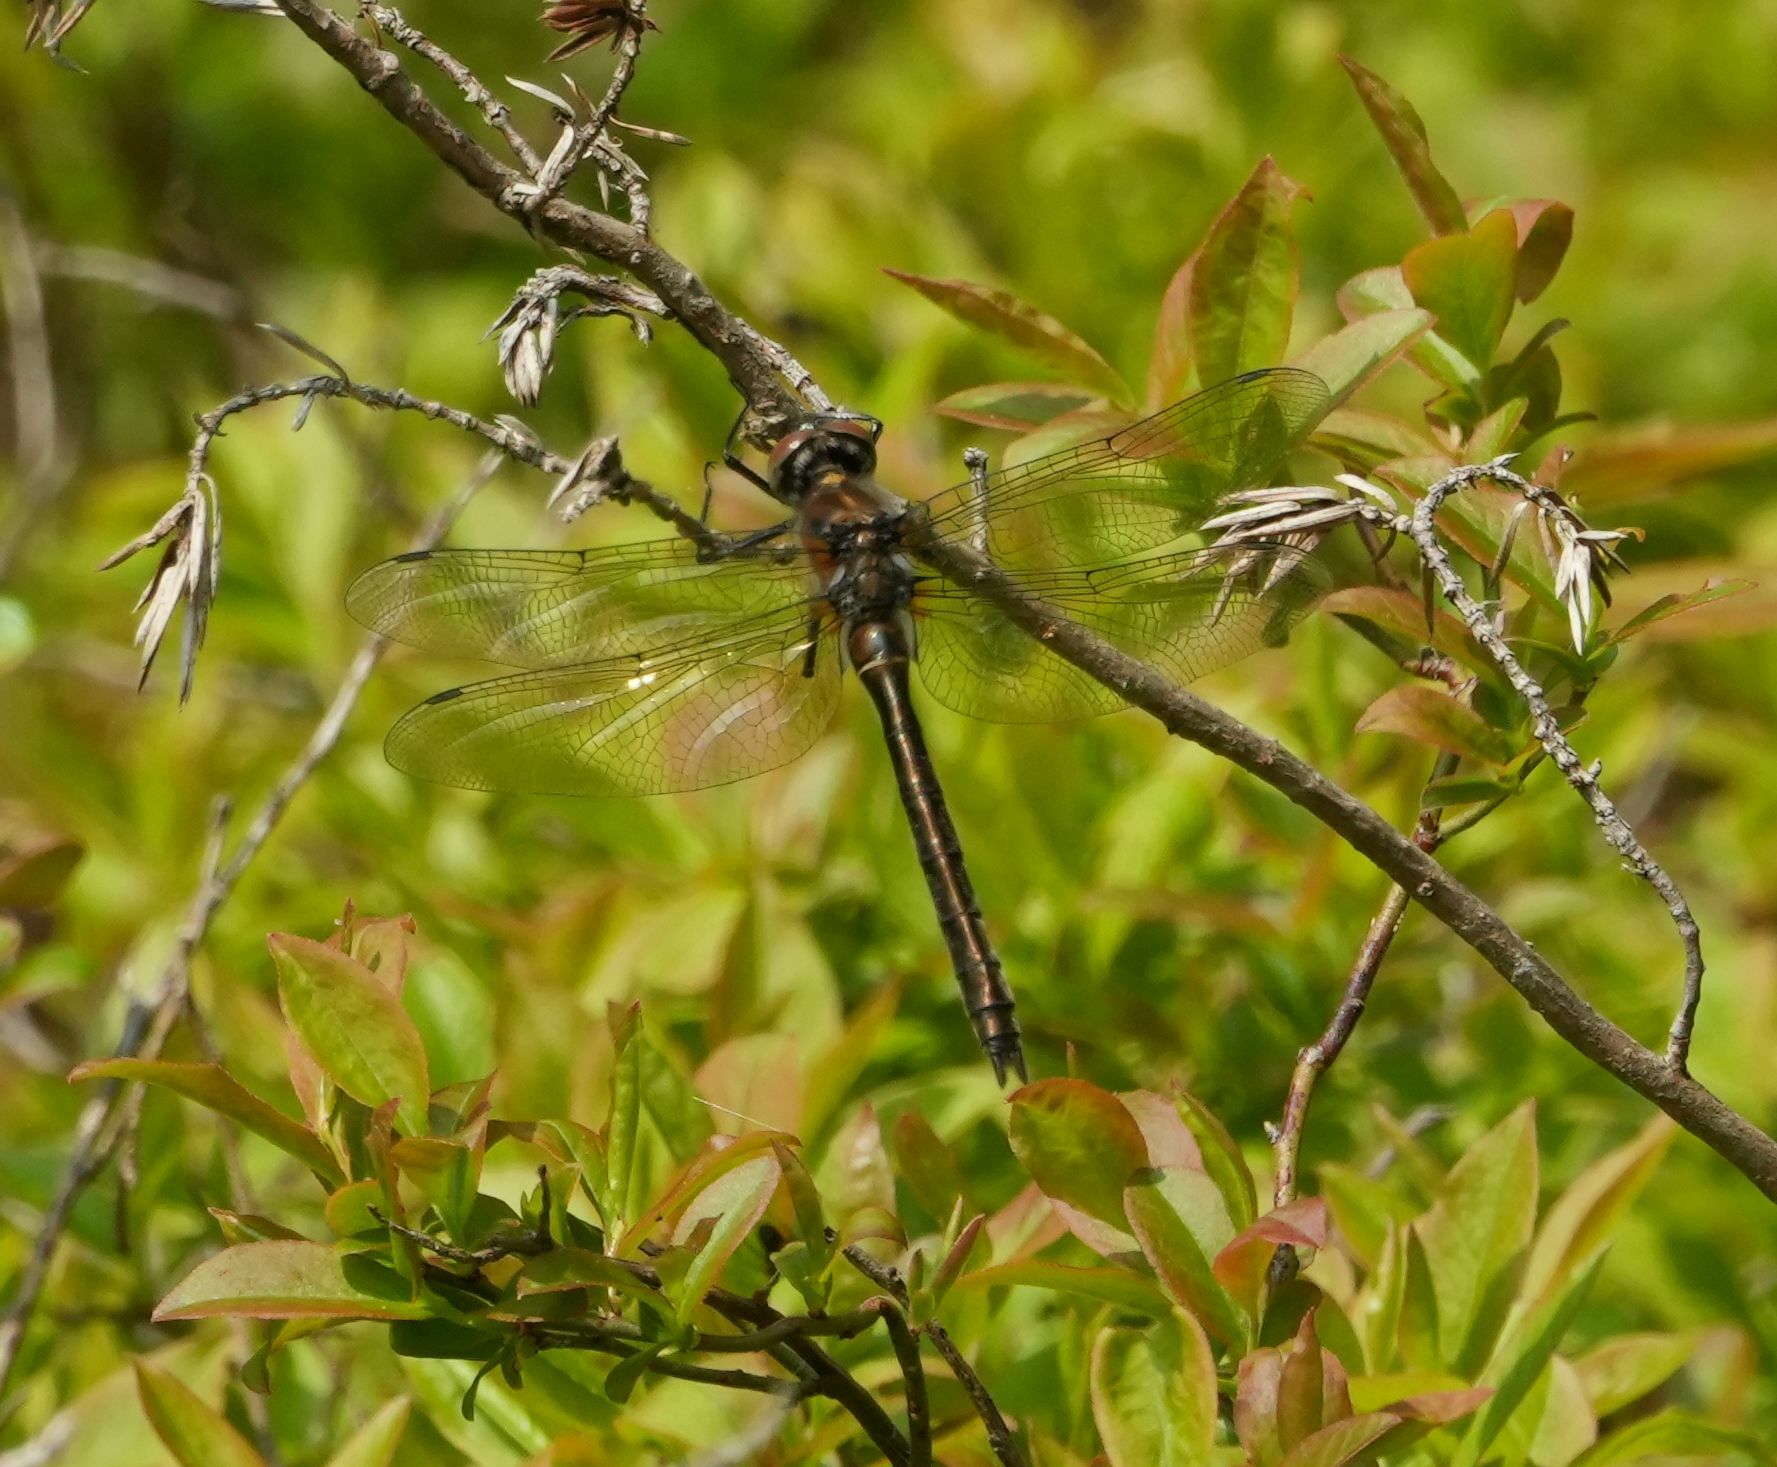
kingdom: Animalia
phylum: Arthropoda
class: Insecta
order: Odonata
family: Corduliidae
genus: Cordulia
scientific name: Cordulia shurtleffii
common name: American emerald
